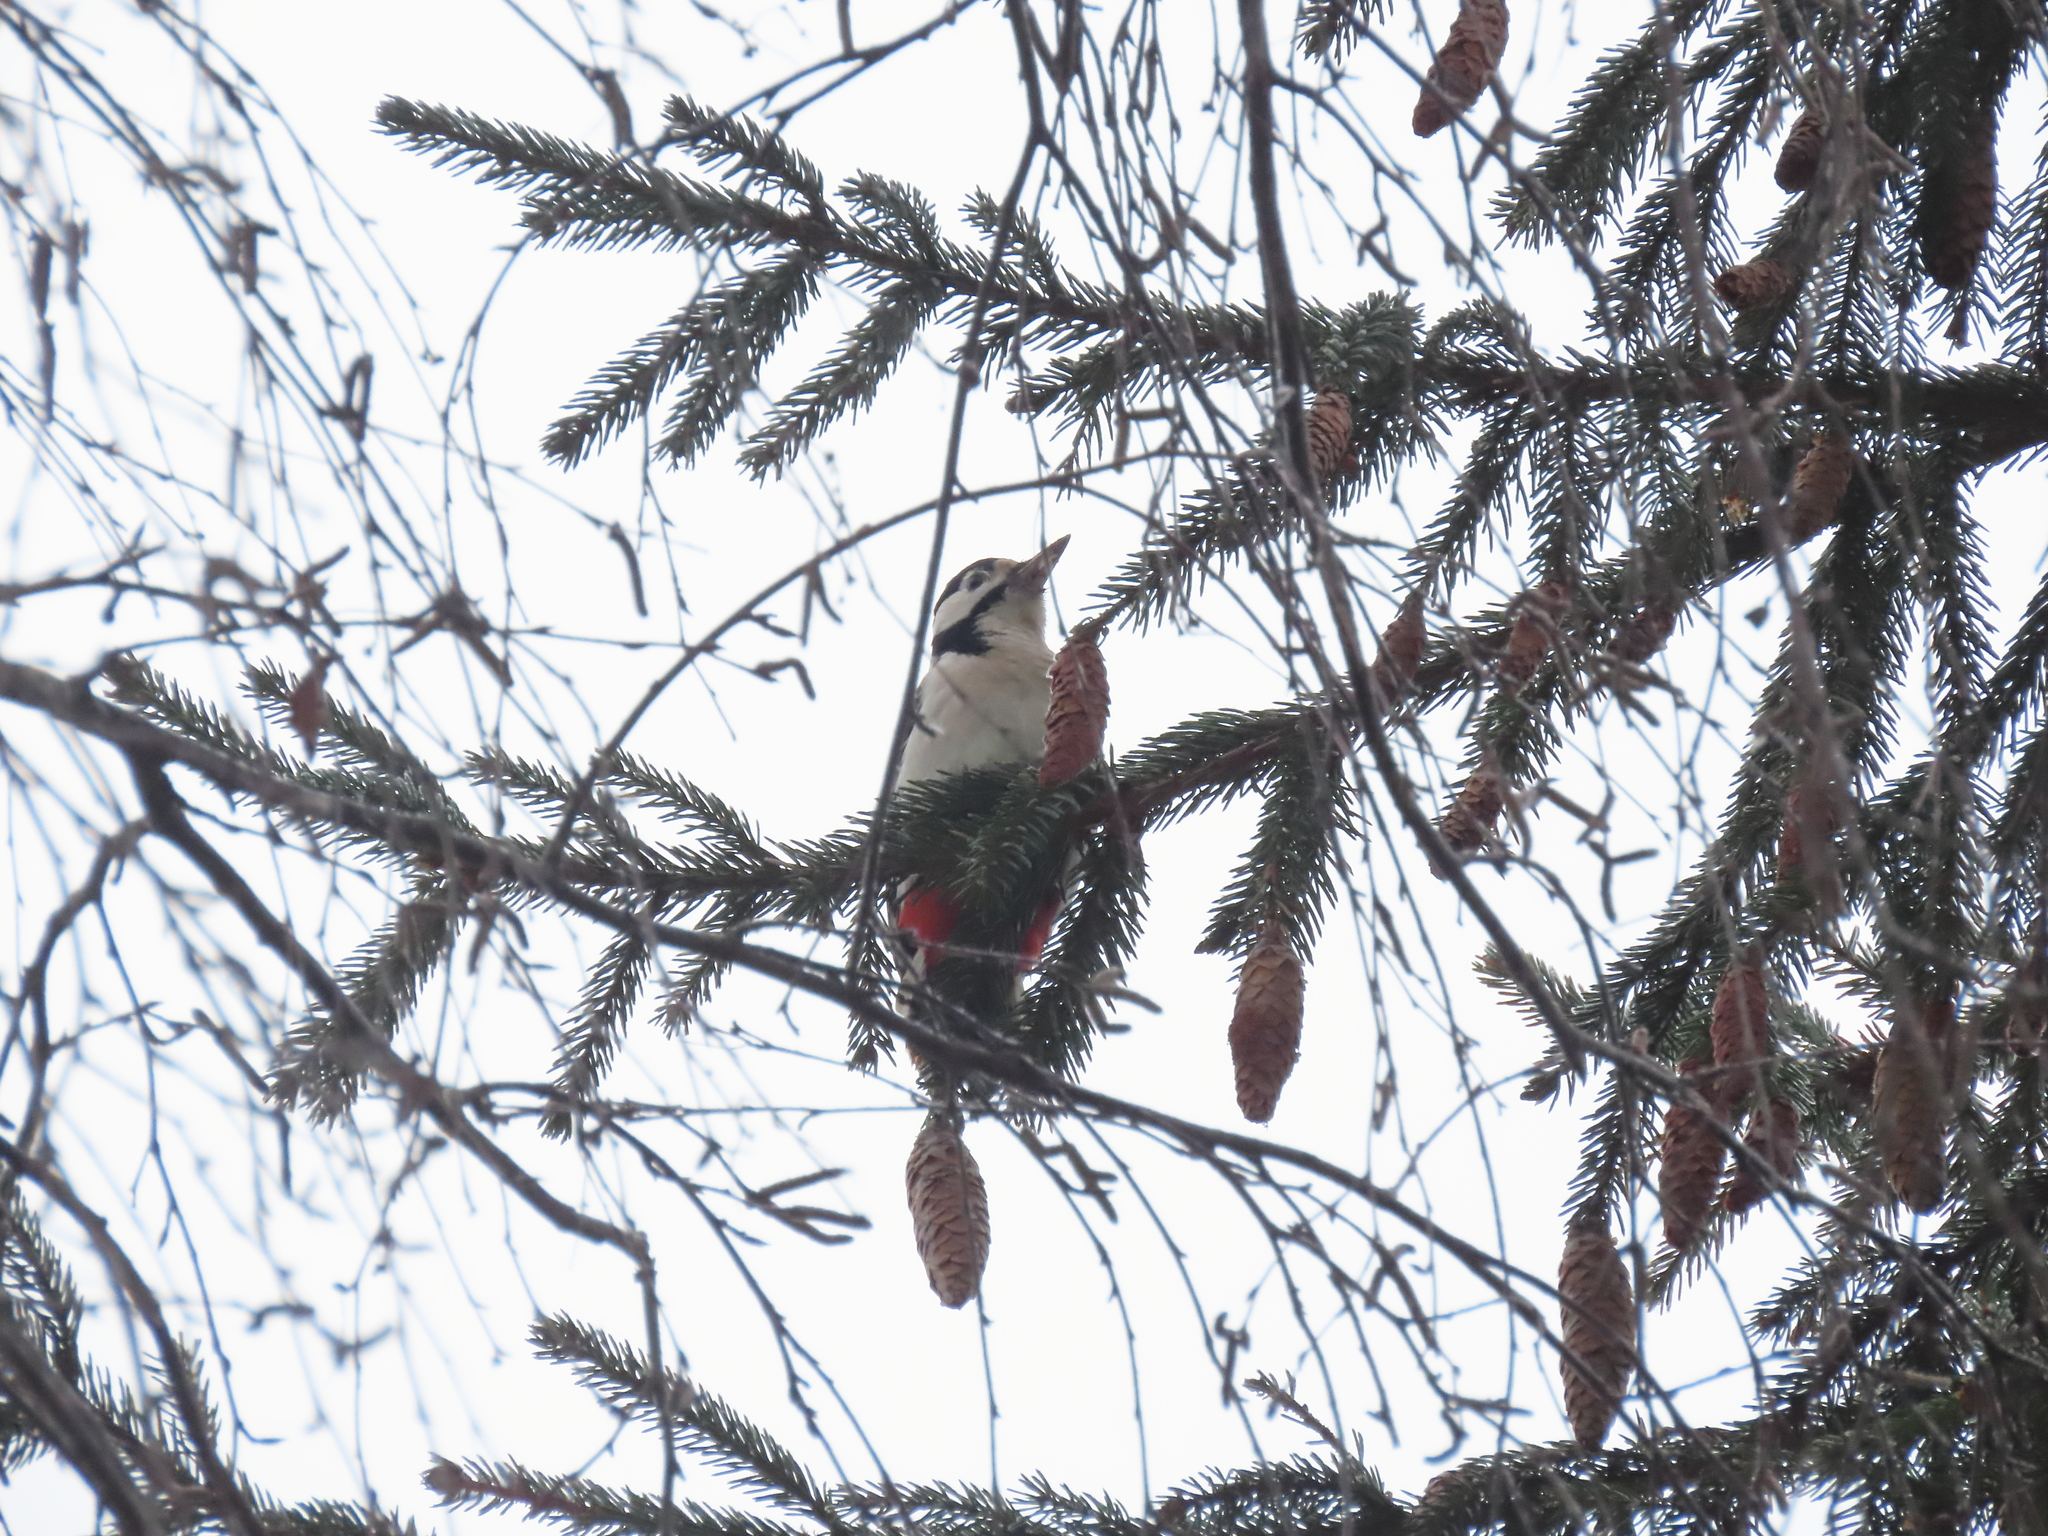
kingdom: Animalia
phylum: Chordata
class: Aves
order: Piciformes
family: Picidae
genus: Dendrocopos
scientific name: Dendrocopos major
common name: Great spotted woodpecker
